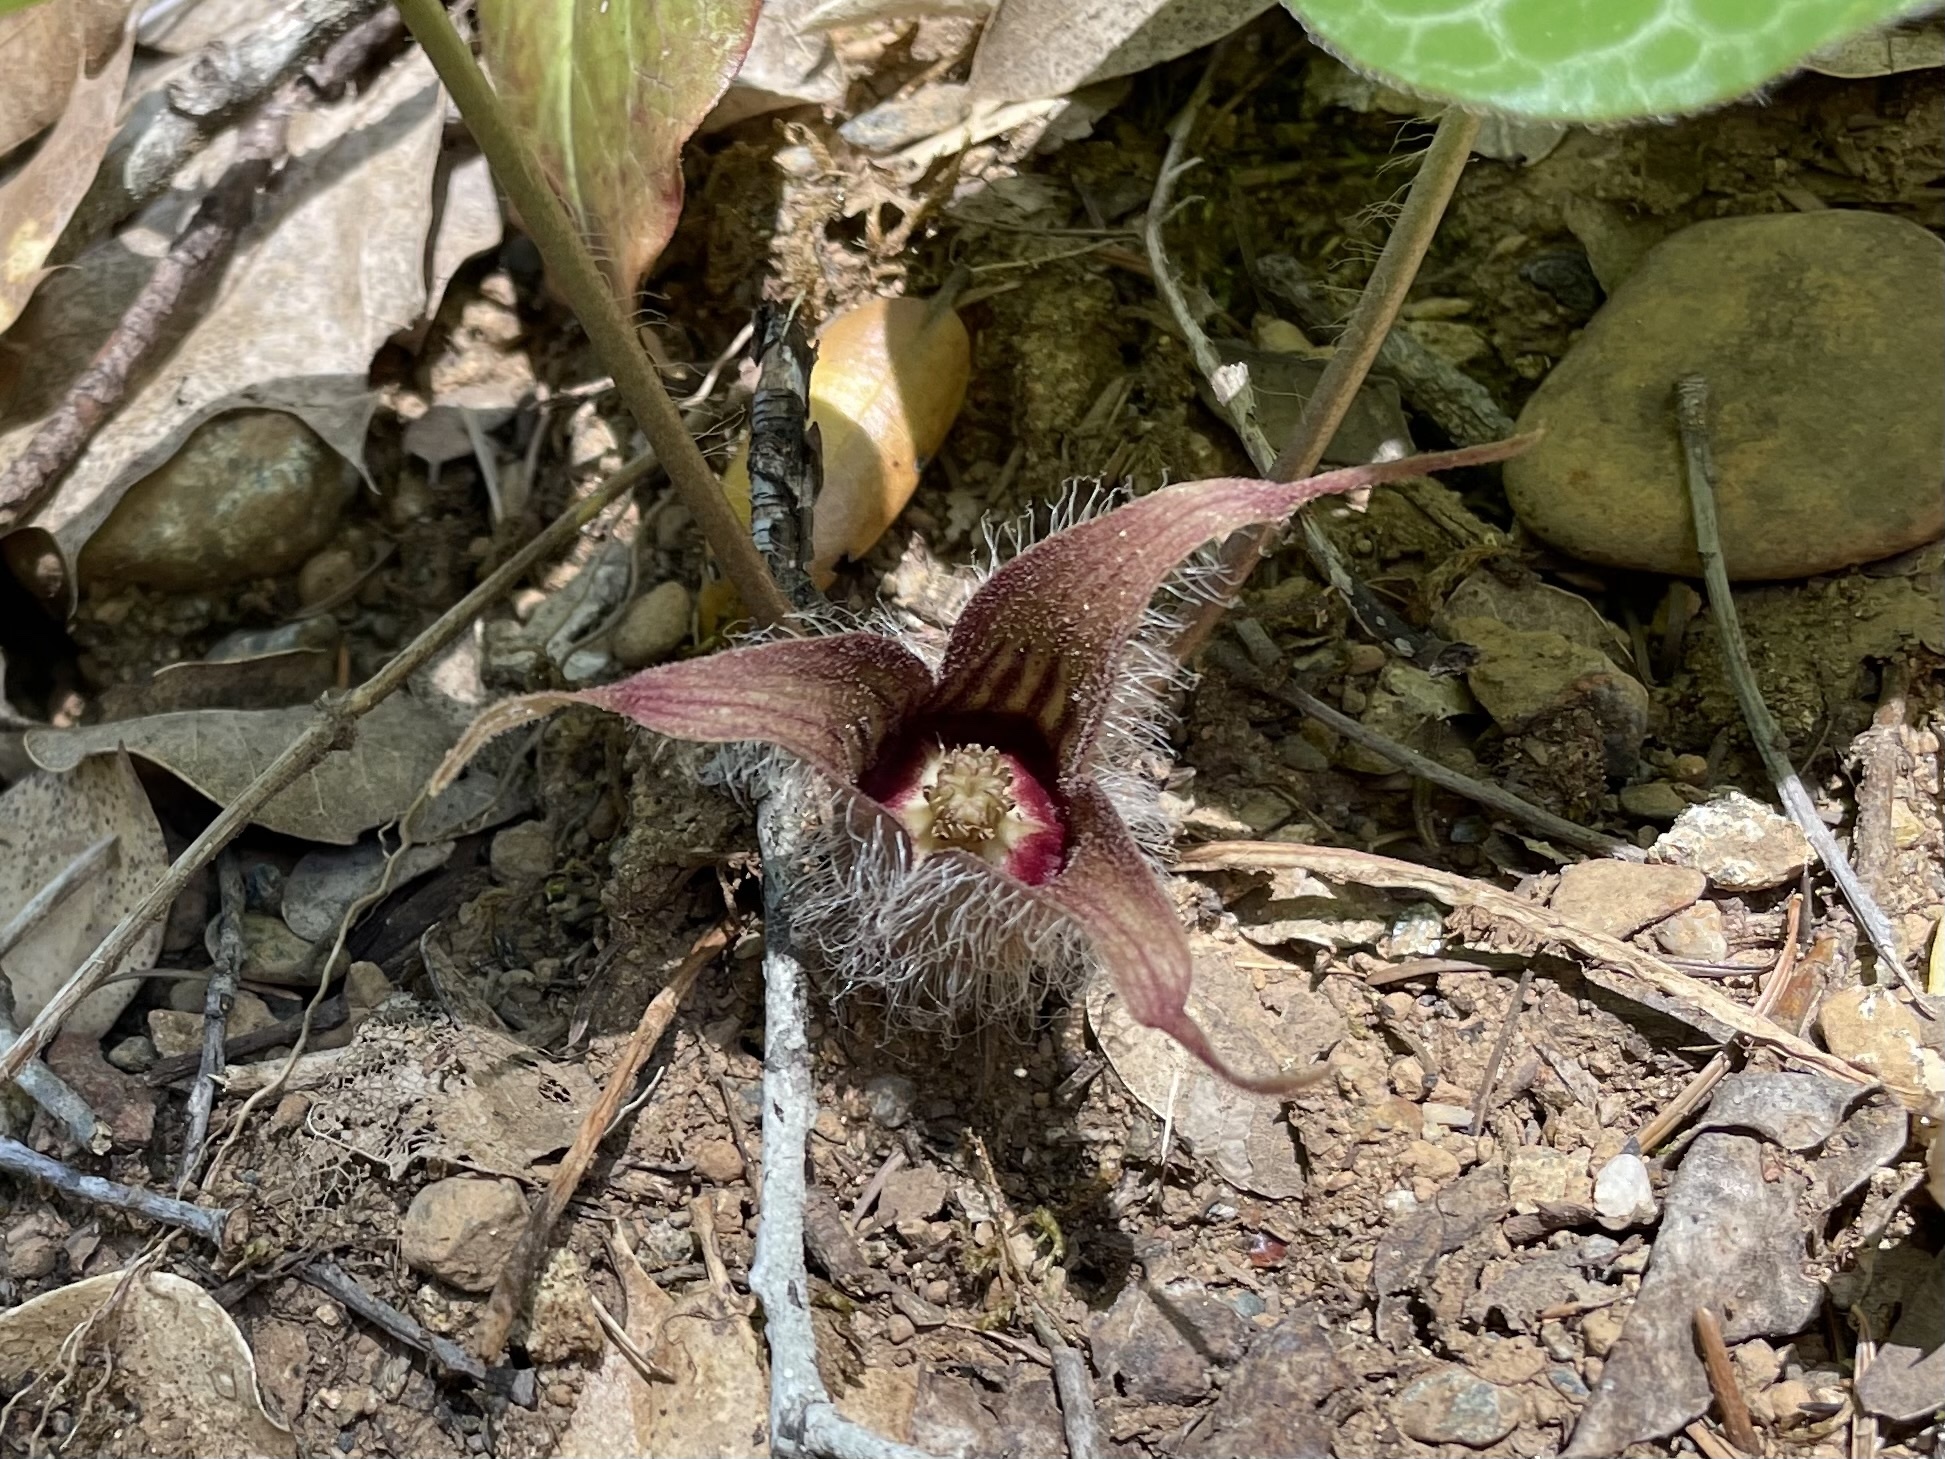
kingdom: Plantae
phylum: Tracheophyta
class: Magnoliopsida
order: Piperales
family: Aristolochiaceae
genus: Asarum
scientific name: Asarum hartwegii
